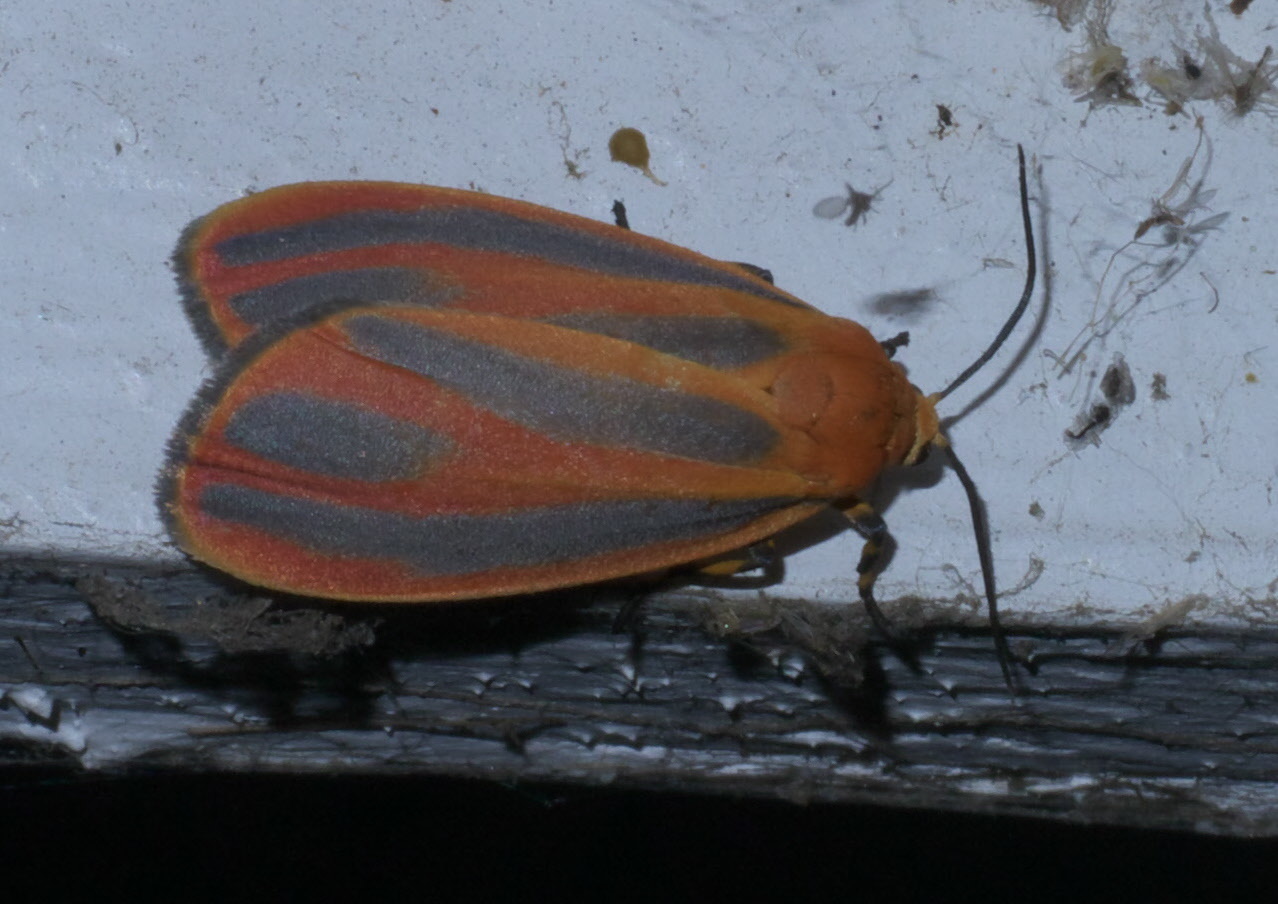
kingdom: Animalia
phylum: Arthropoda
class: Insecta
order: Lepidoptera
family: Erebidae
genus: Hypoprepia
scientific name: Hypoprepia fucosa
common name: Painted lichen moth
